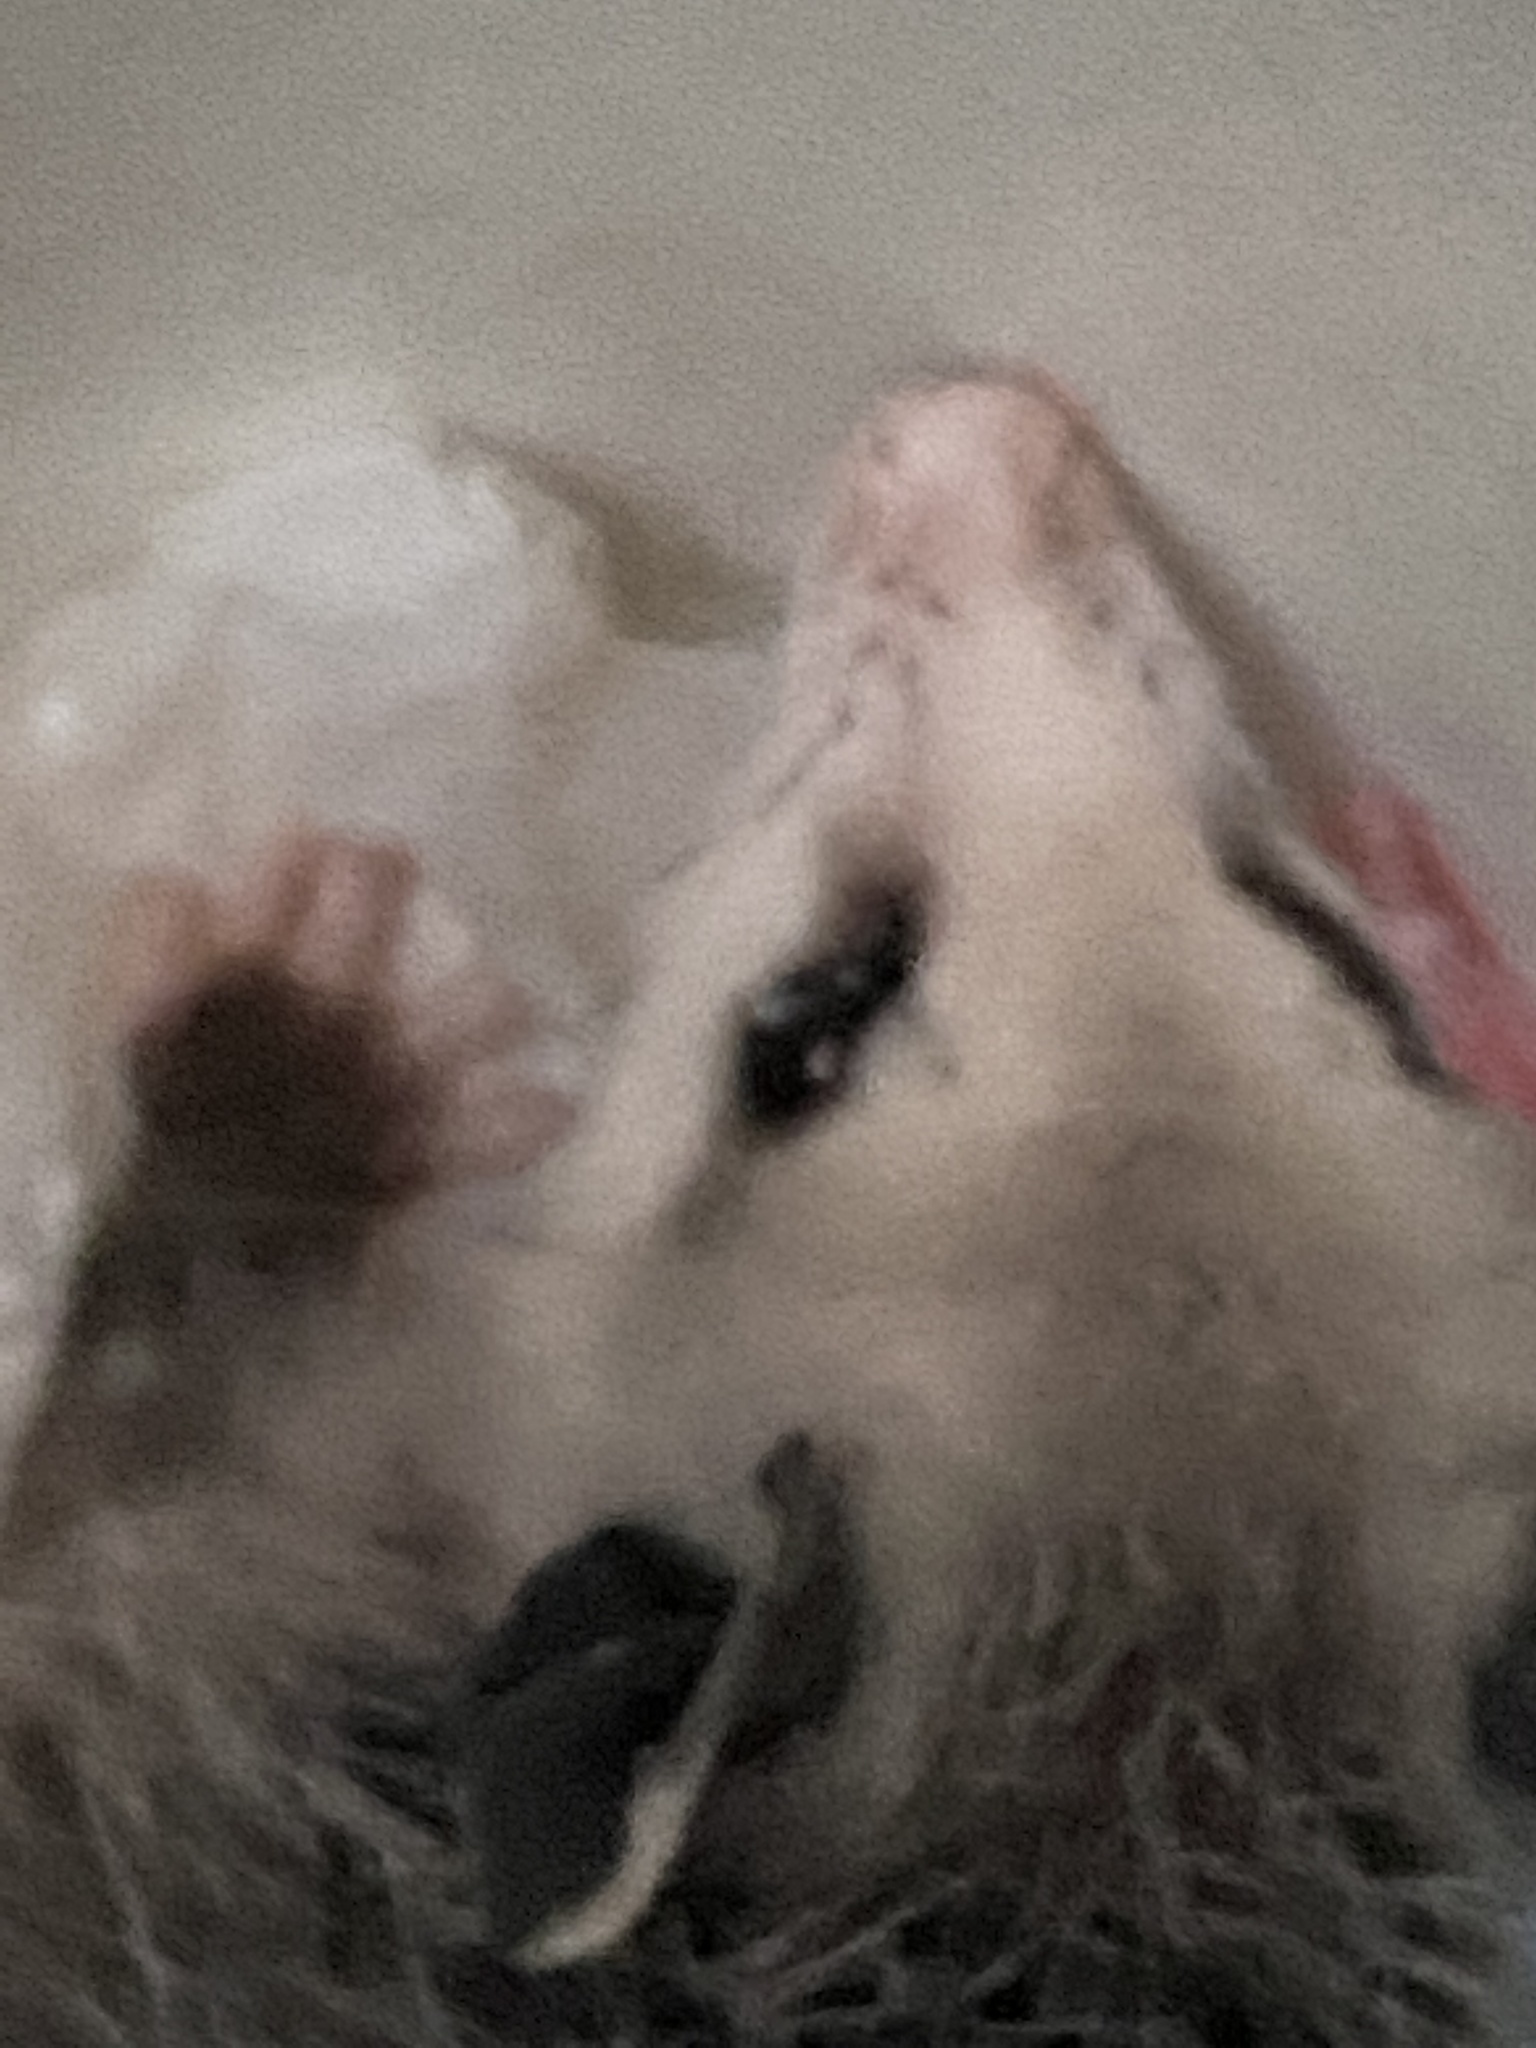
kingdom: Animalia
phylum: Chordata
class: Mammalia
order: Didelphimorphia
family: Didelphidae
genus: Didelphis
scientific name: Didelphis virginiana
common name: Virginia opossum
